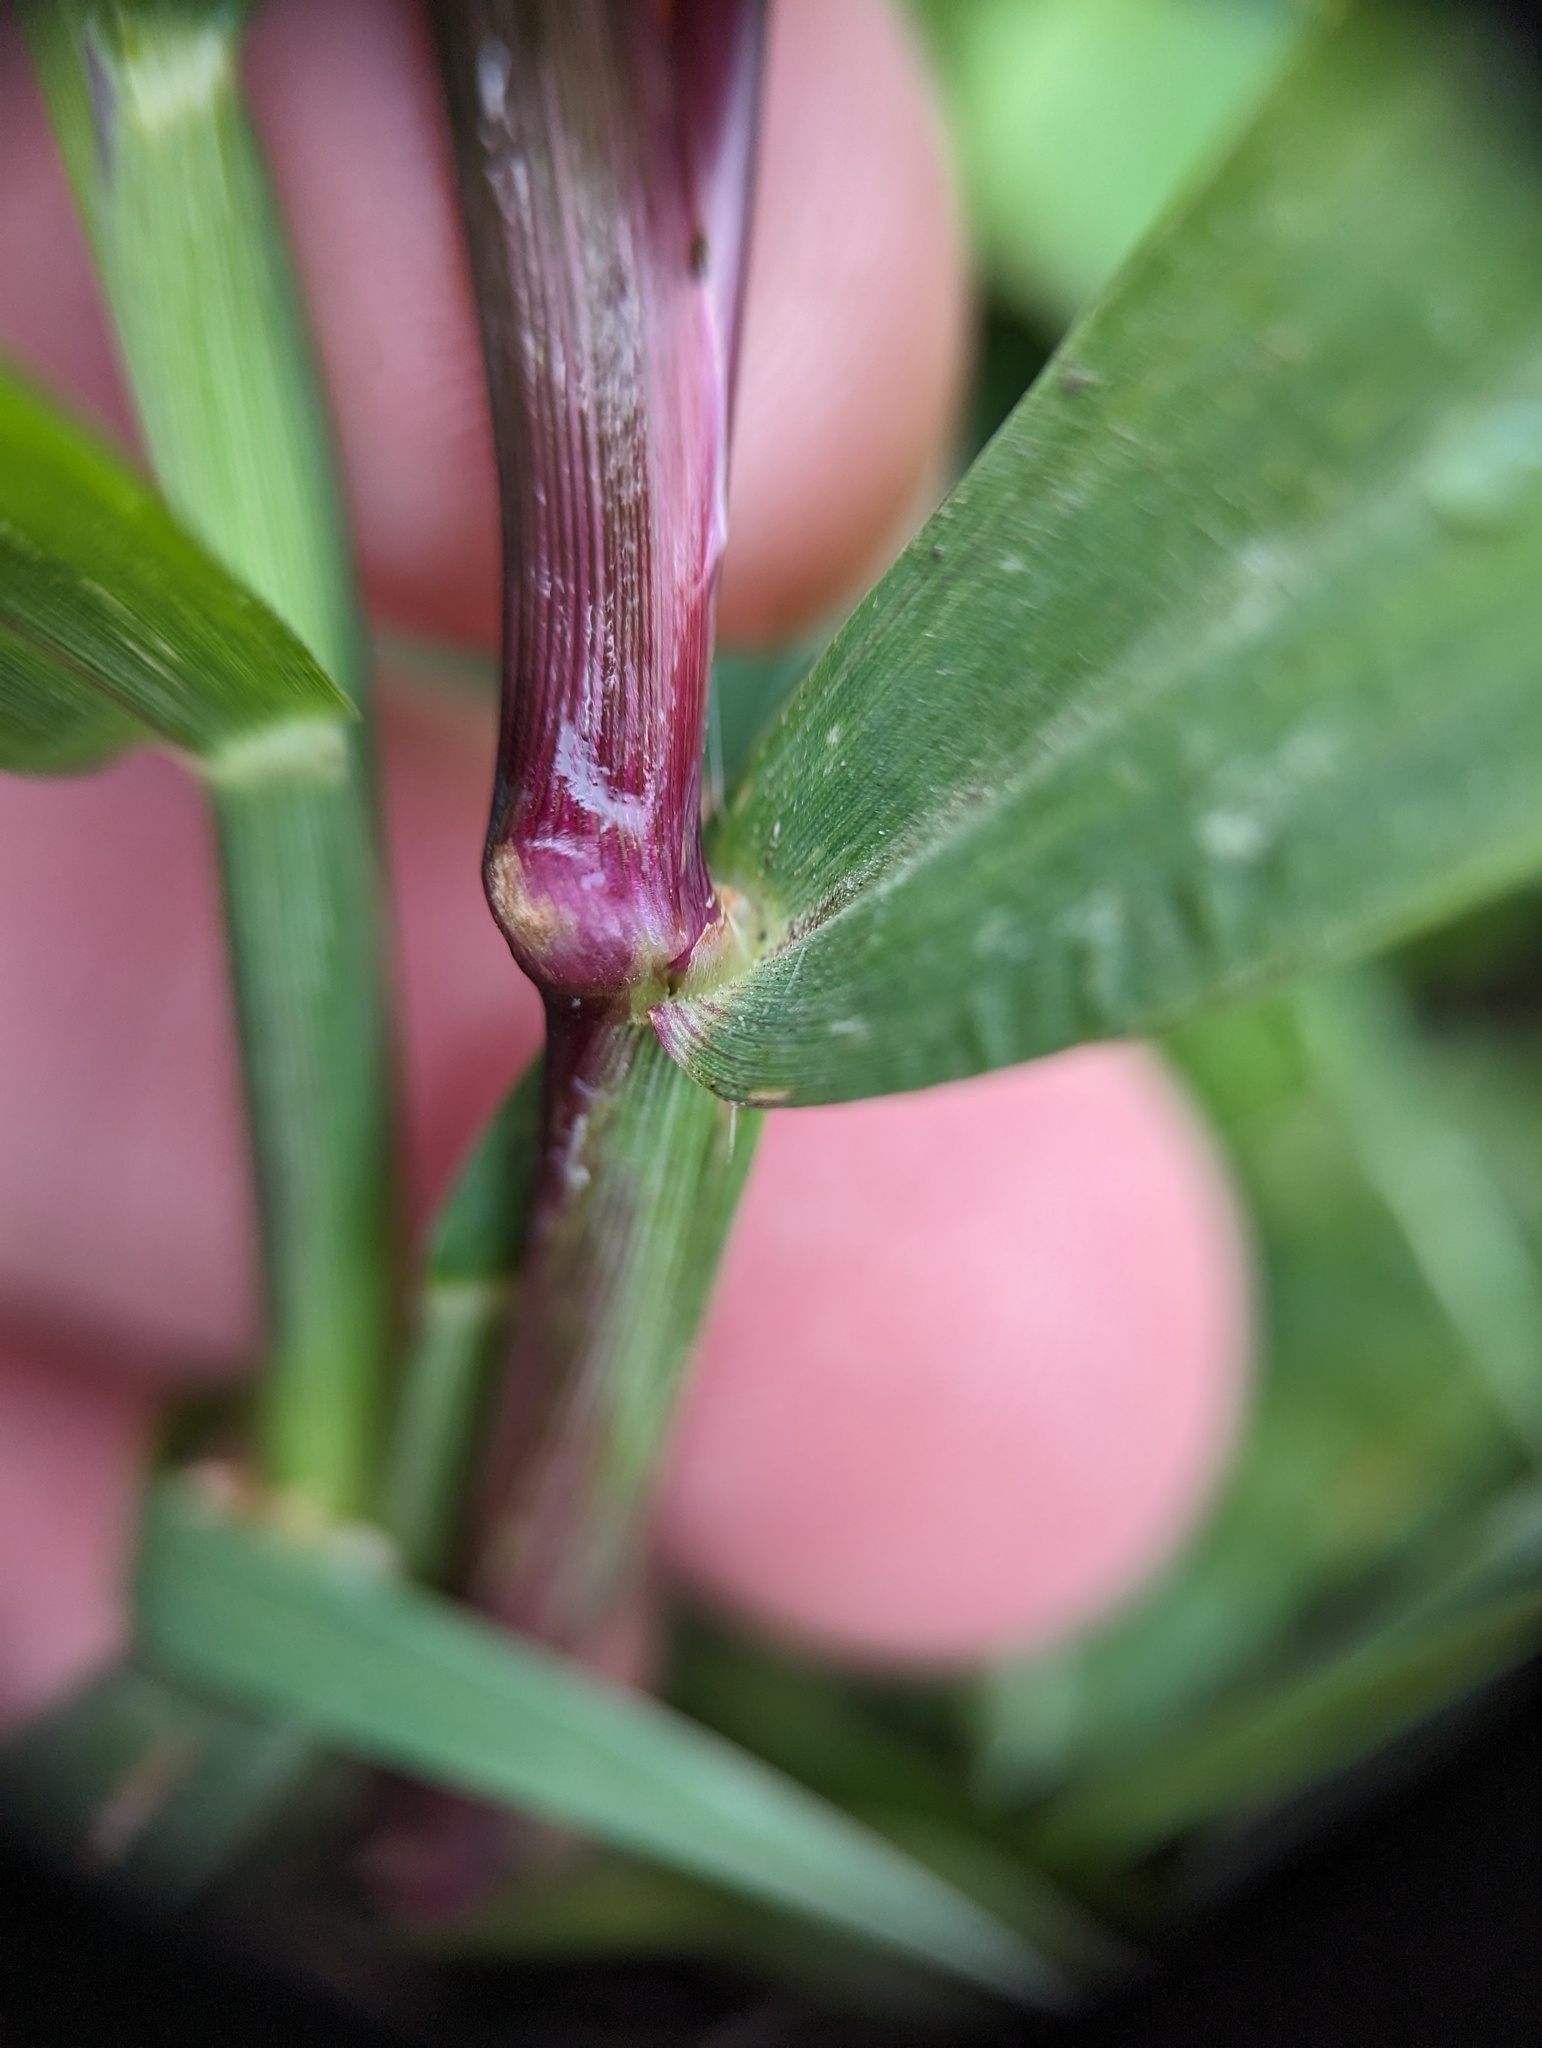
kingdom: Plantae
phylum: Tracheophyta
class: Liliopsida
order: Poales
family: Poaceae
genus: Digitaria
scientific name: Digitaria ischaemum
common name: Smooth crabgrass
